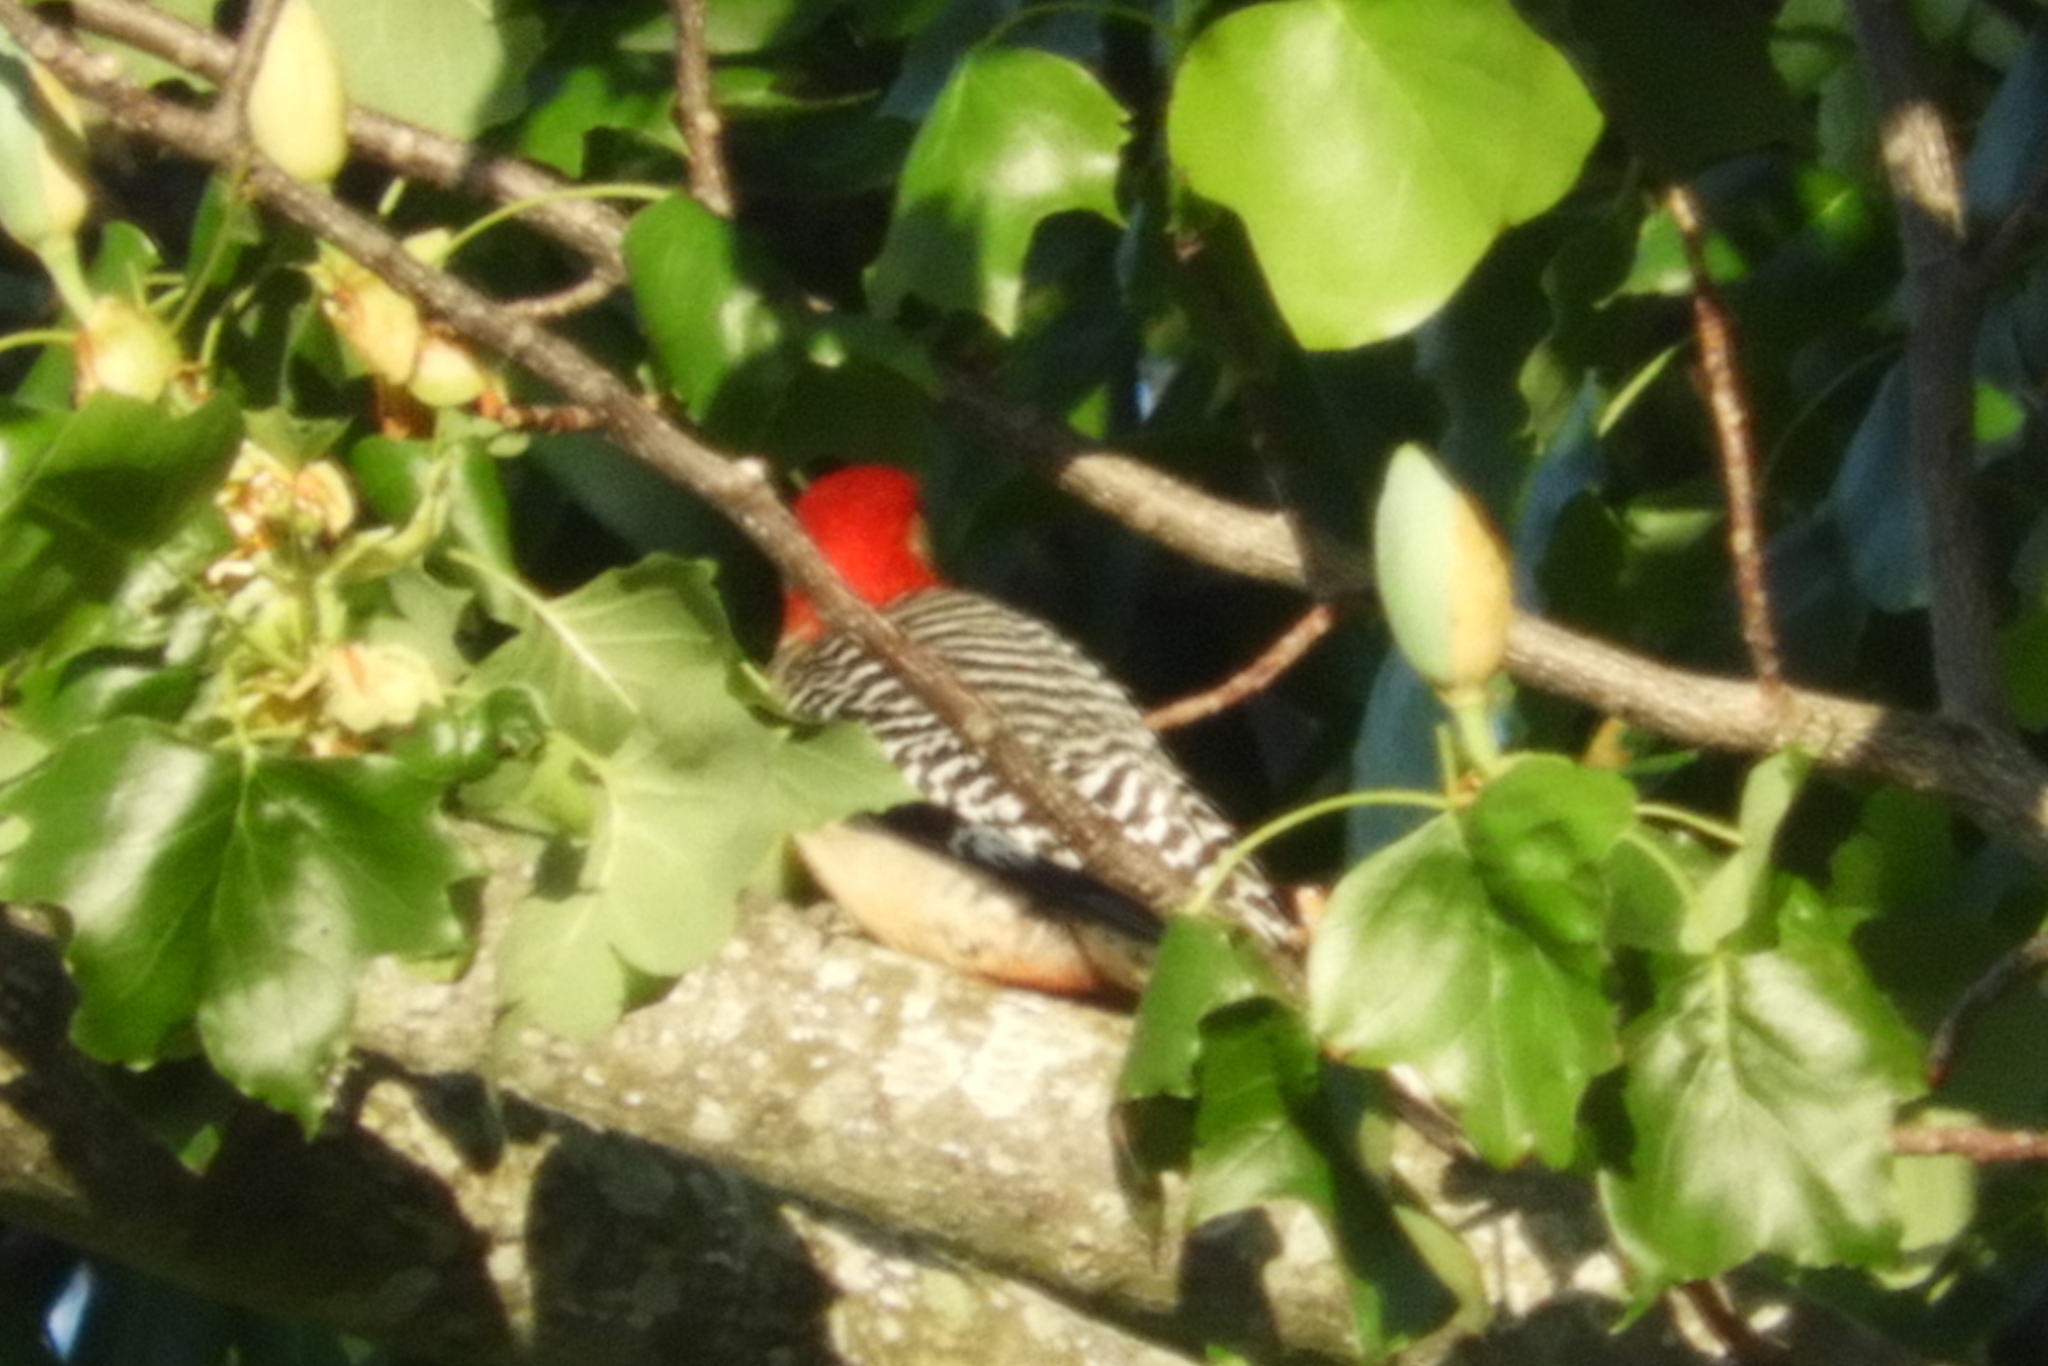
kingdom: Animalia
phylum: Chordata
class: Aves
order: Piciformes
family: Picidae
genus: Melanerpes
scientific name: Melanerpes carolinus
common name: Red-bellied woodpecker
